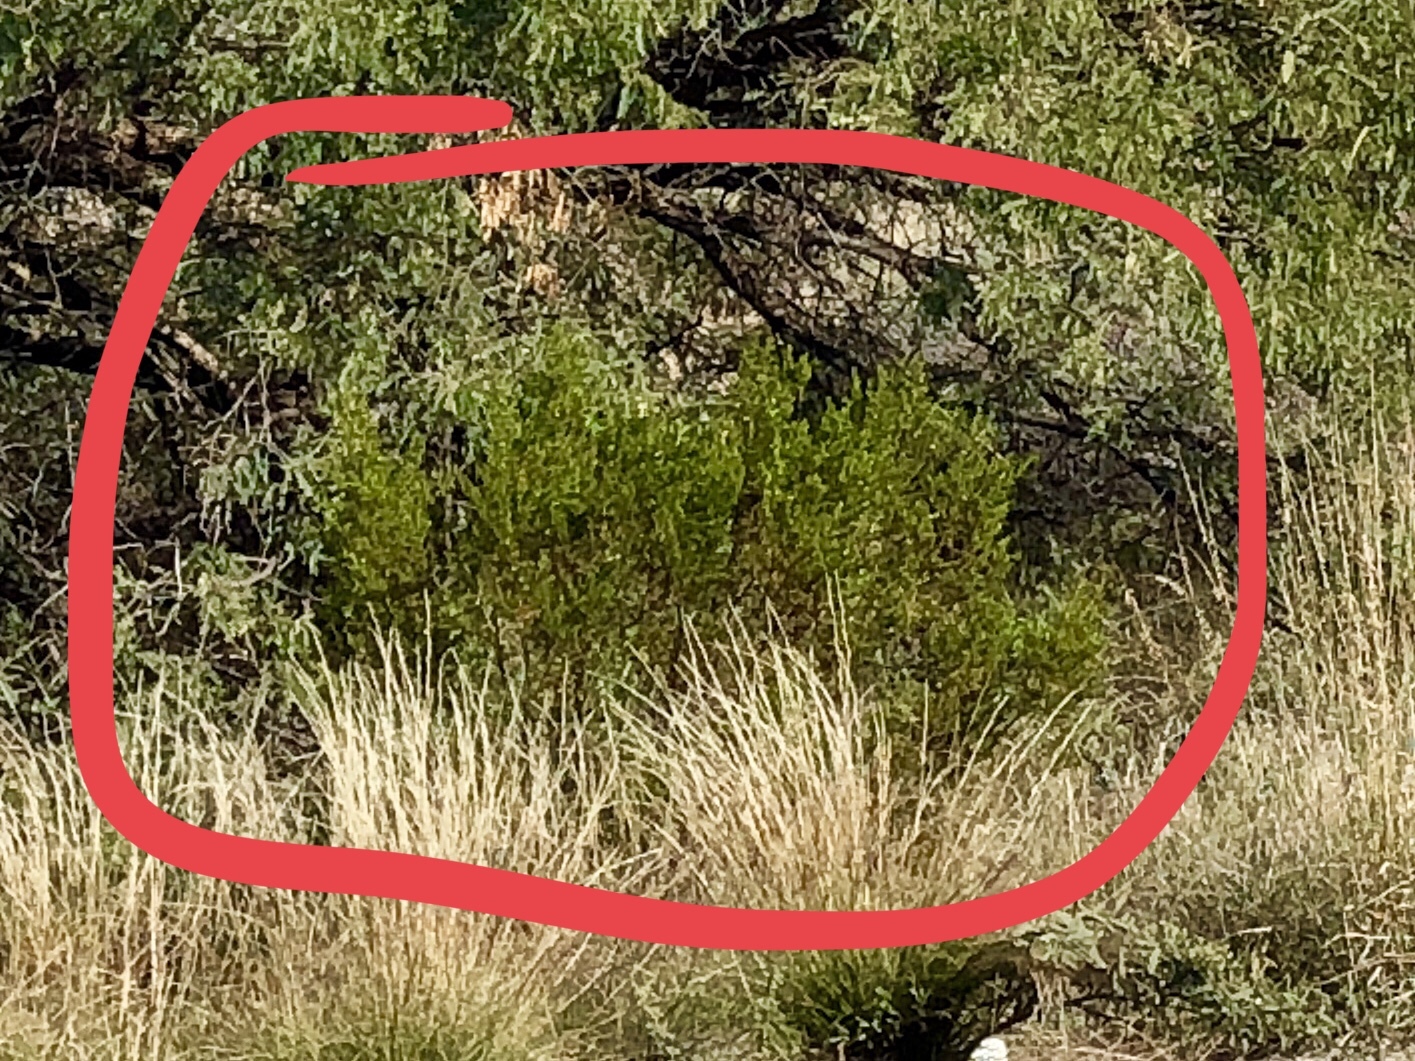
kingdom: Plantae
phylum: Tracheophyta
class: Magnoliopsida
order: Zygophyllales
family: Zygophyllaceae
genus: Larrea
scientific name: Larrea tridentata
